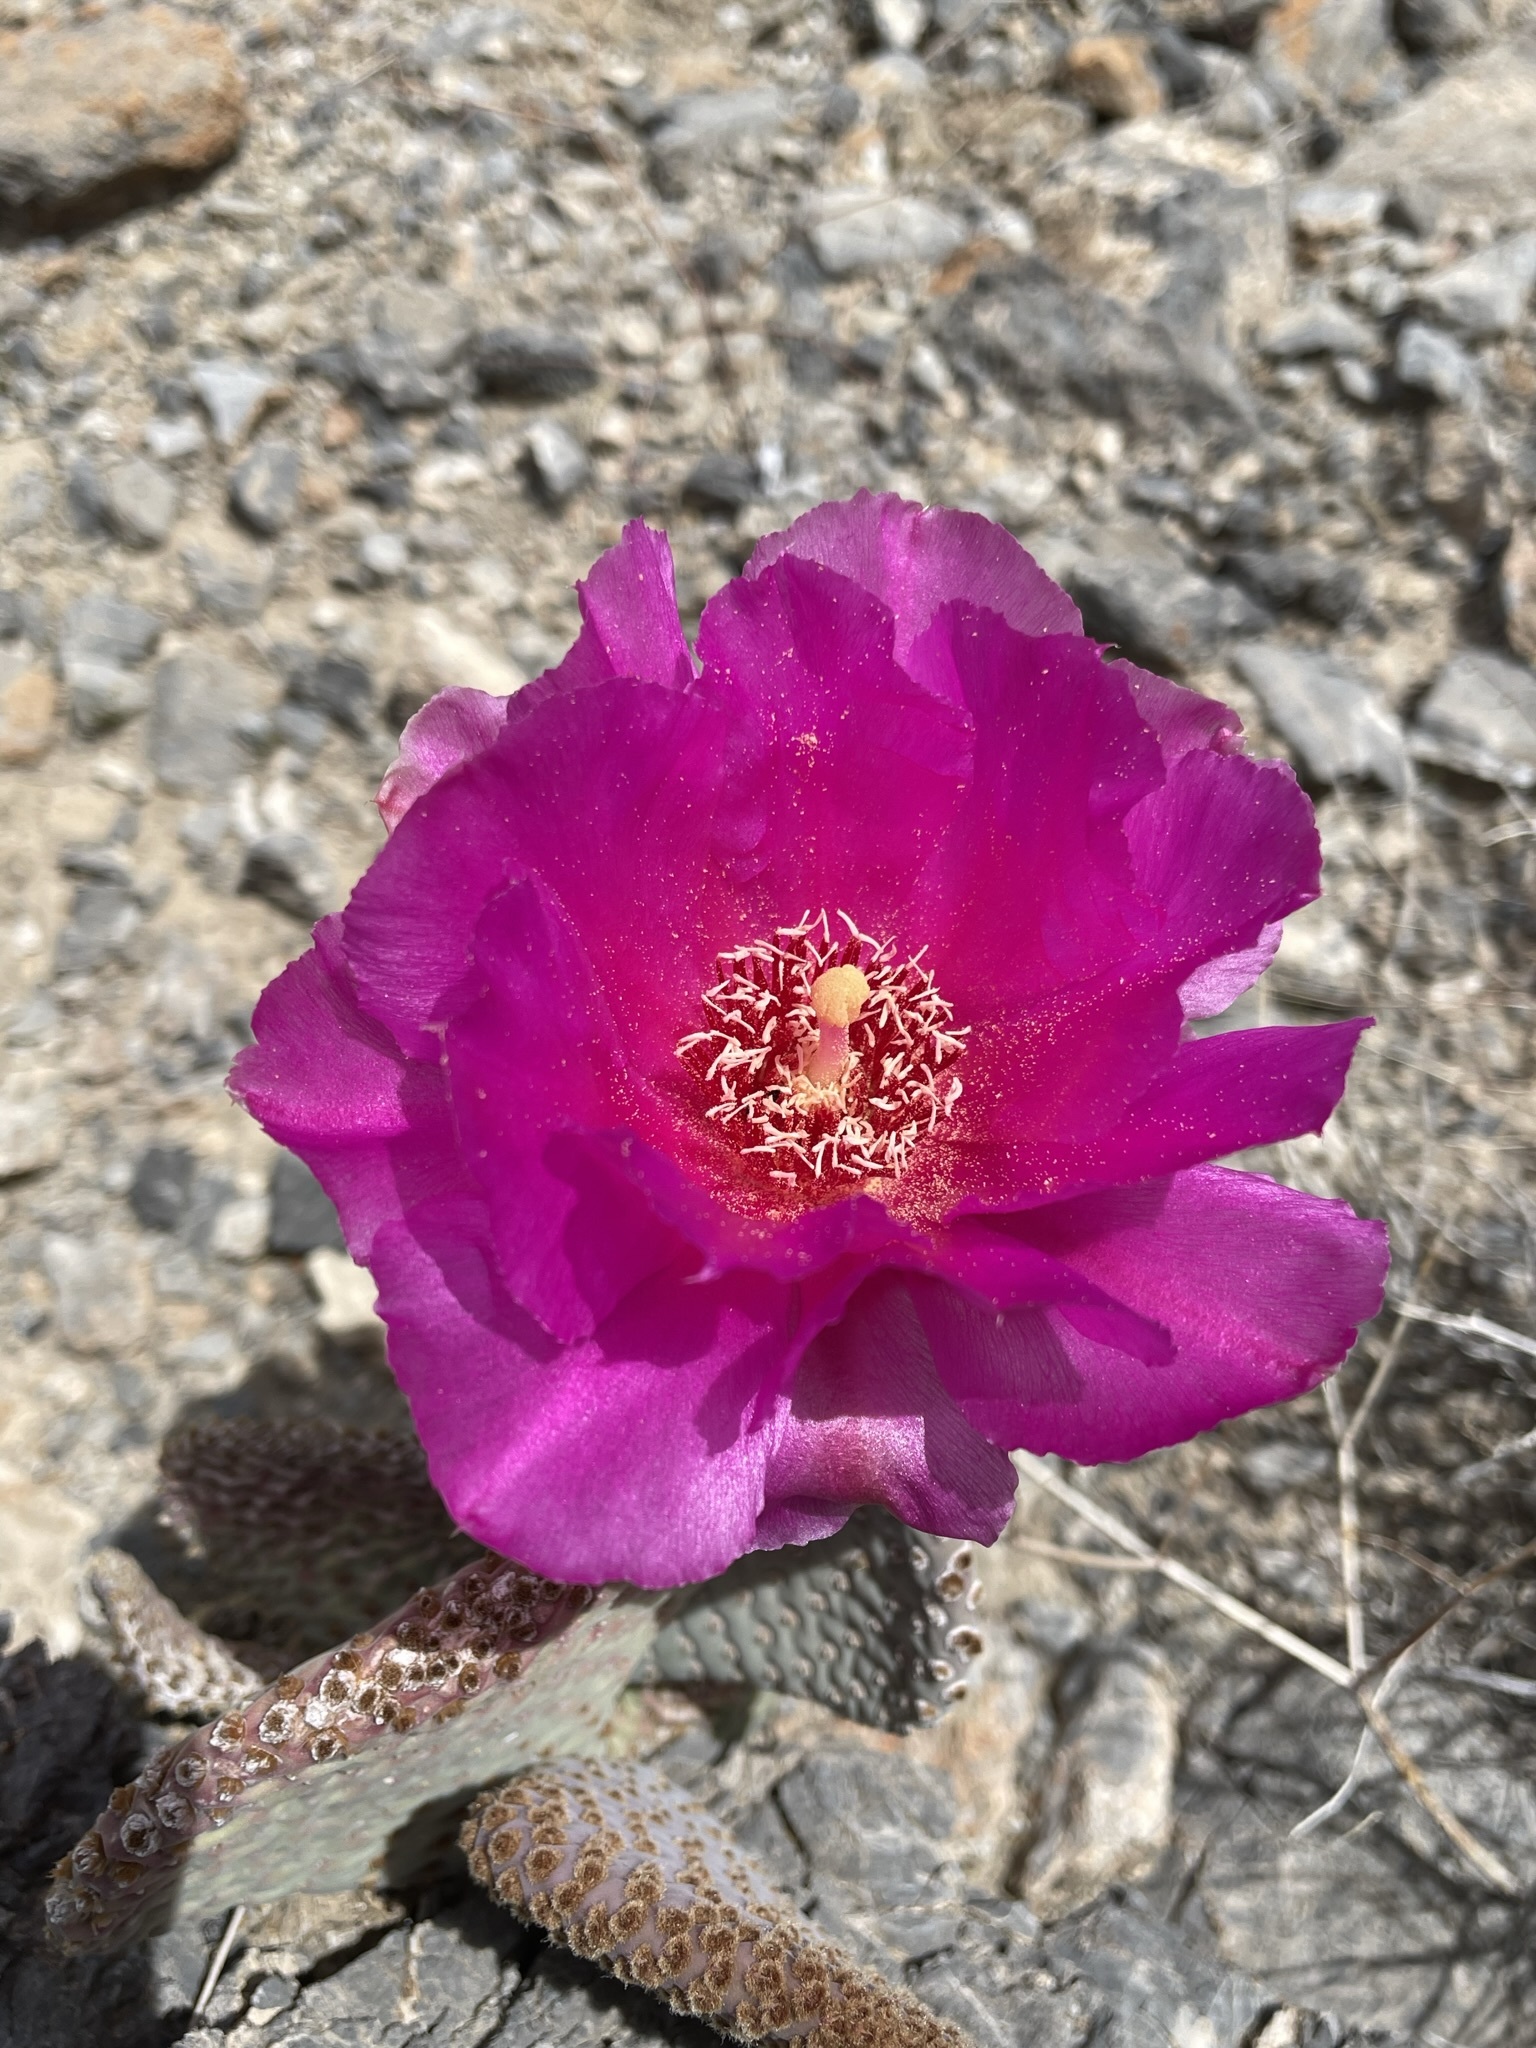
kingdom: Plantae
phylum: Tracheophyta
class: Magnoliopsida
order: Caryophyllales
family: Cactaceae
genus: Opuntia
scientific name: Opuntia basilaris
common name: Beavertail prickly-pear
